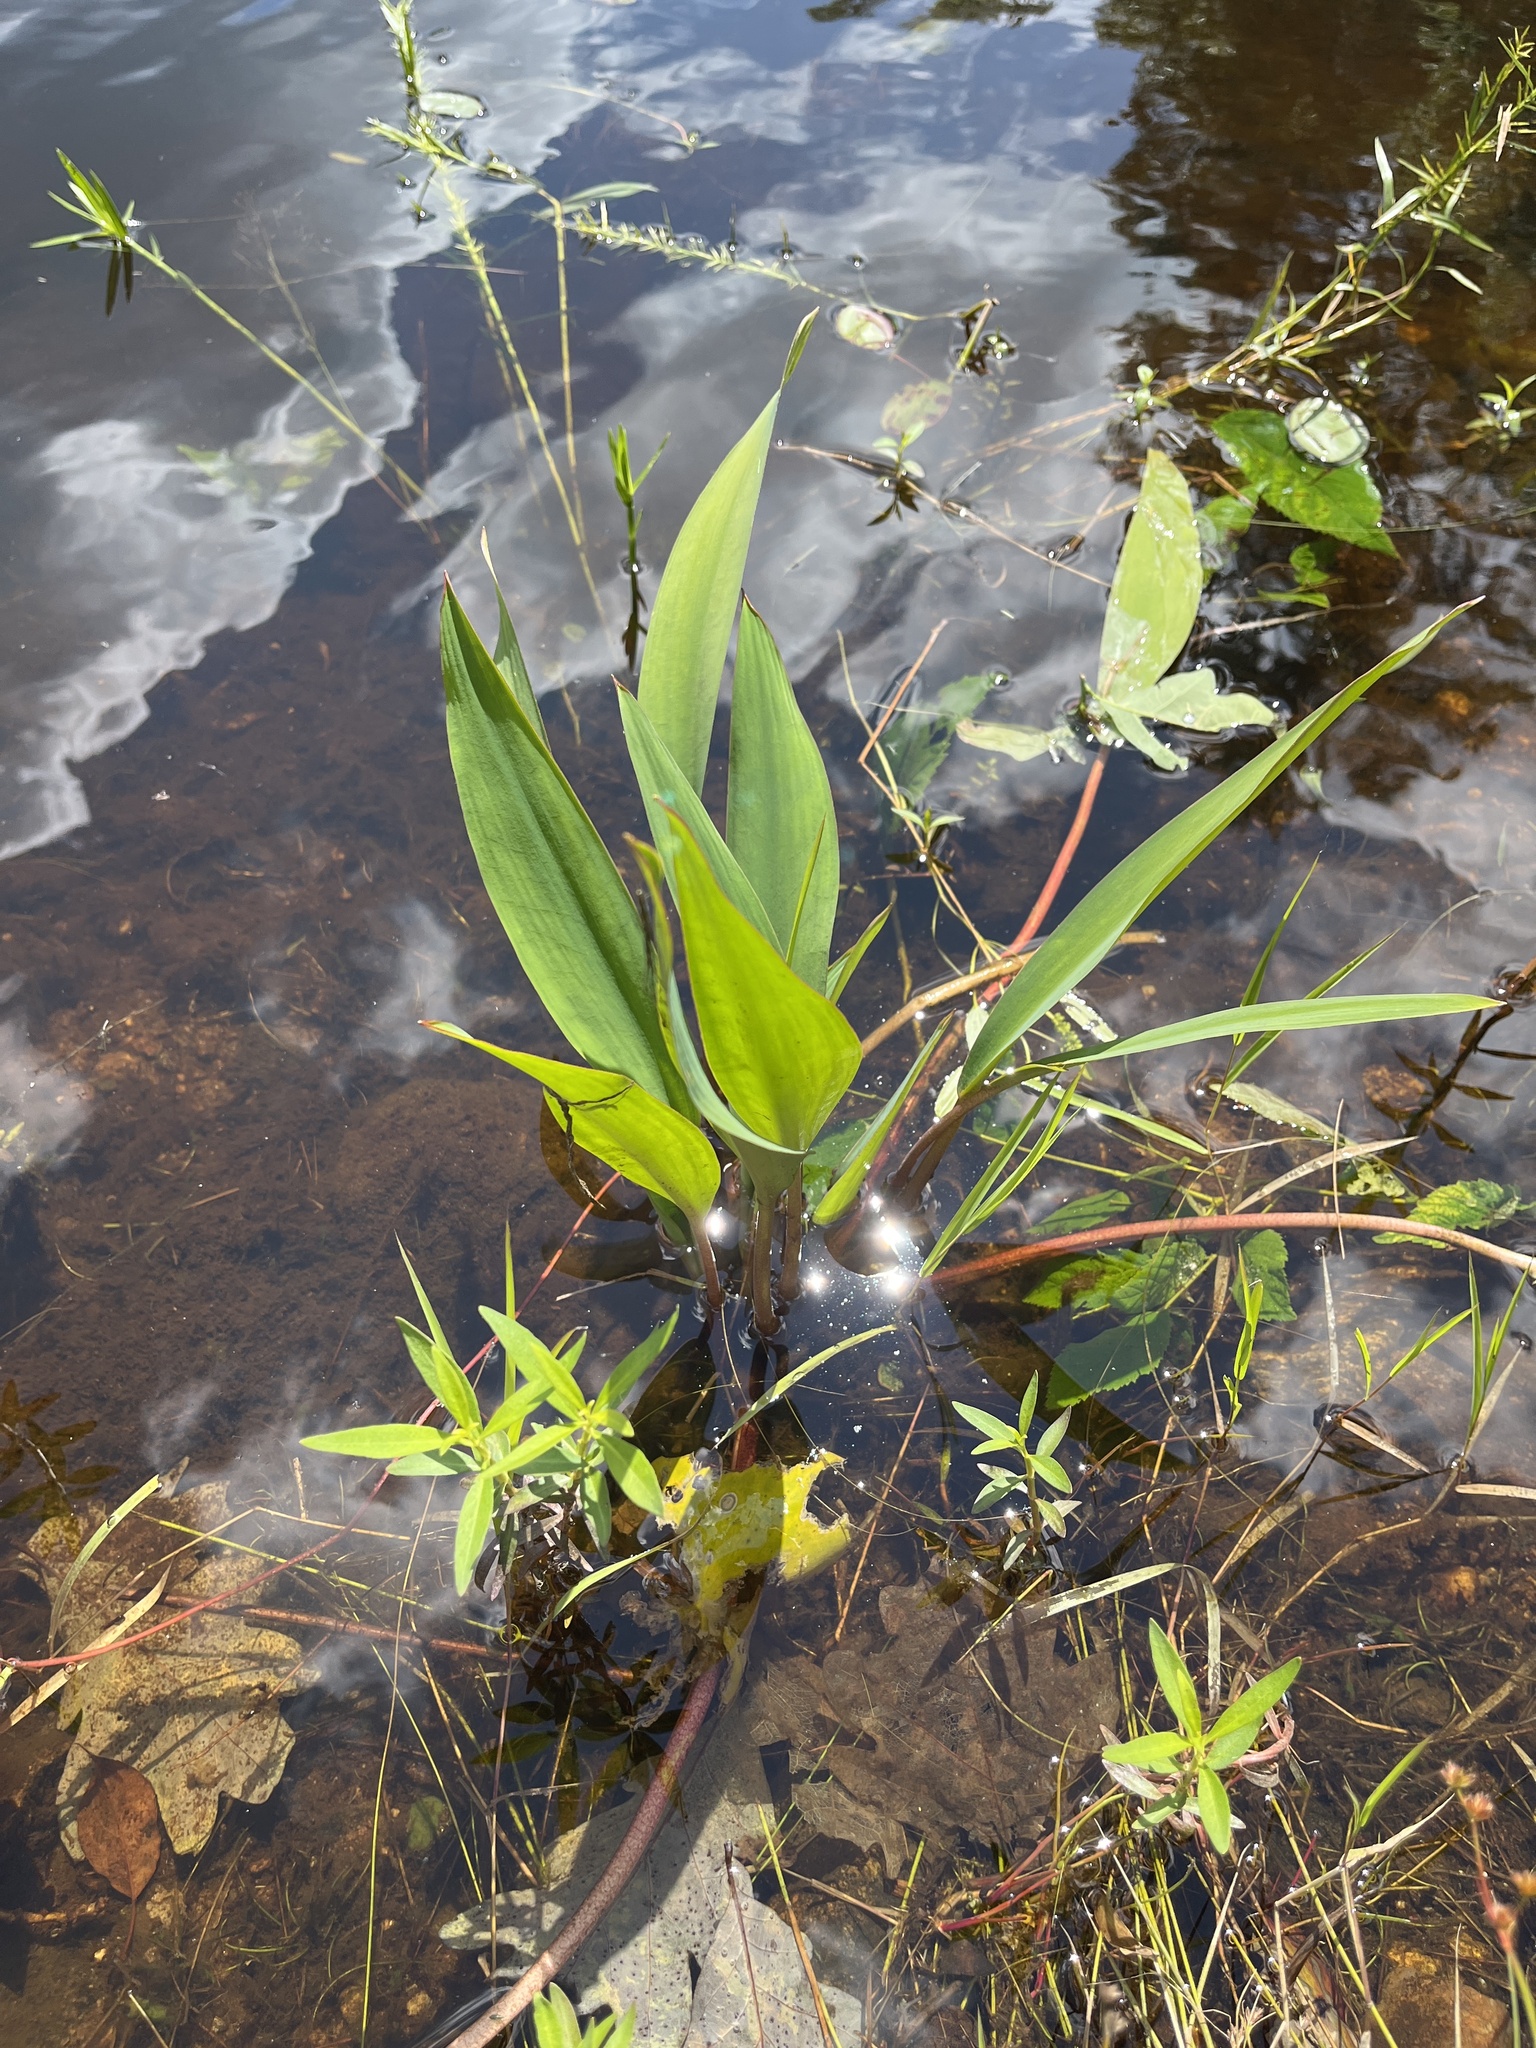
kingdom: Plantae
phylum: Tracheophyta
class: Liliopsida
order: Alismatales
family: Araceae
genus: Orontium
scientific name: Orontium aquaticum
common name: Golden-club
